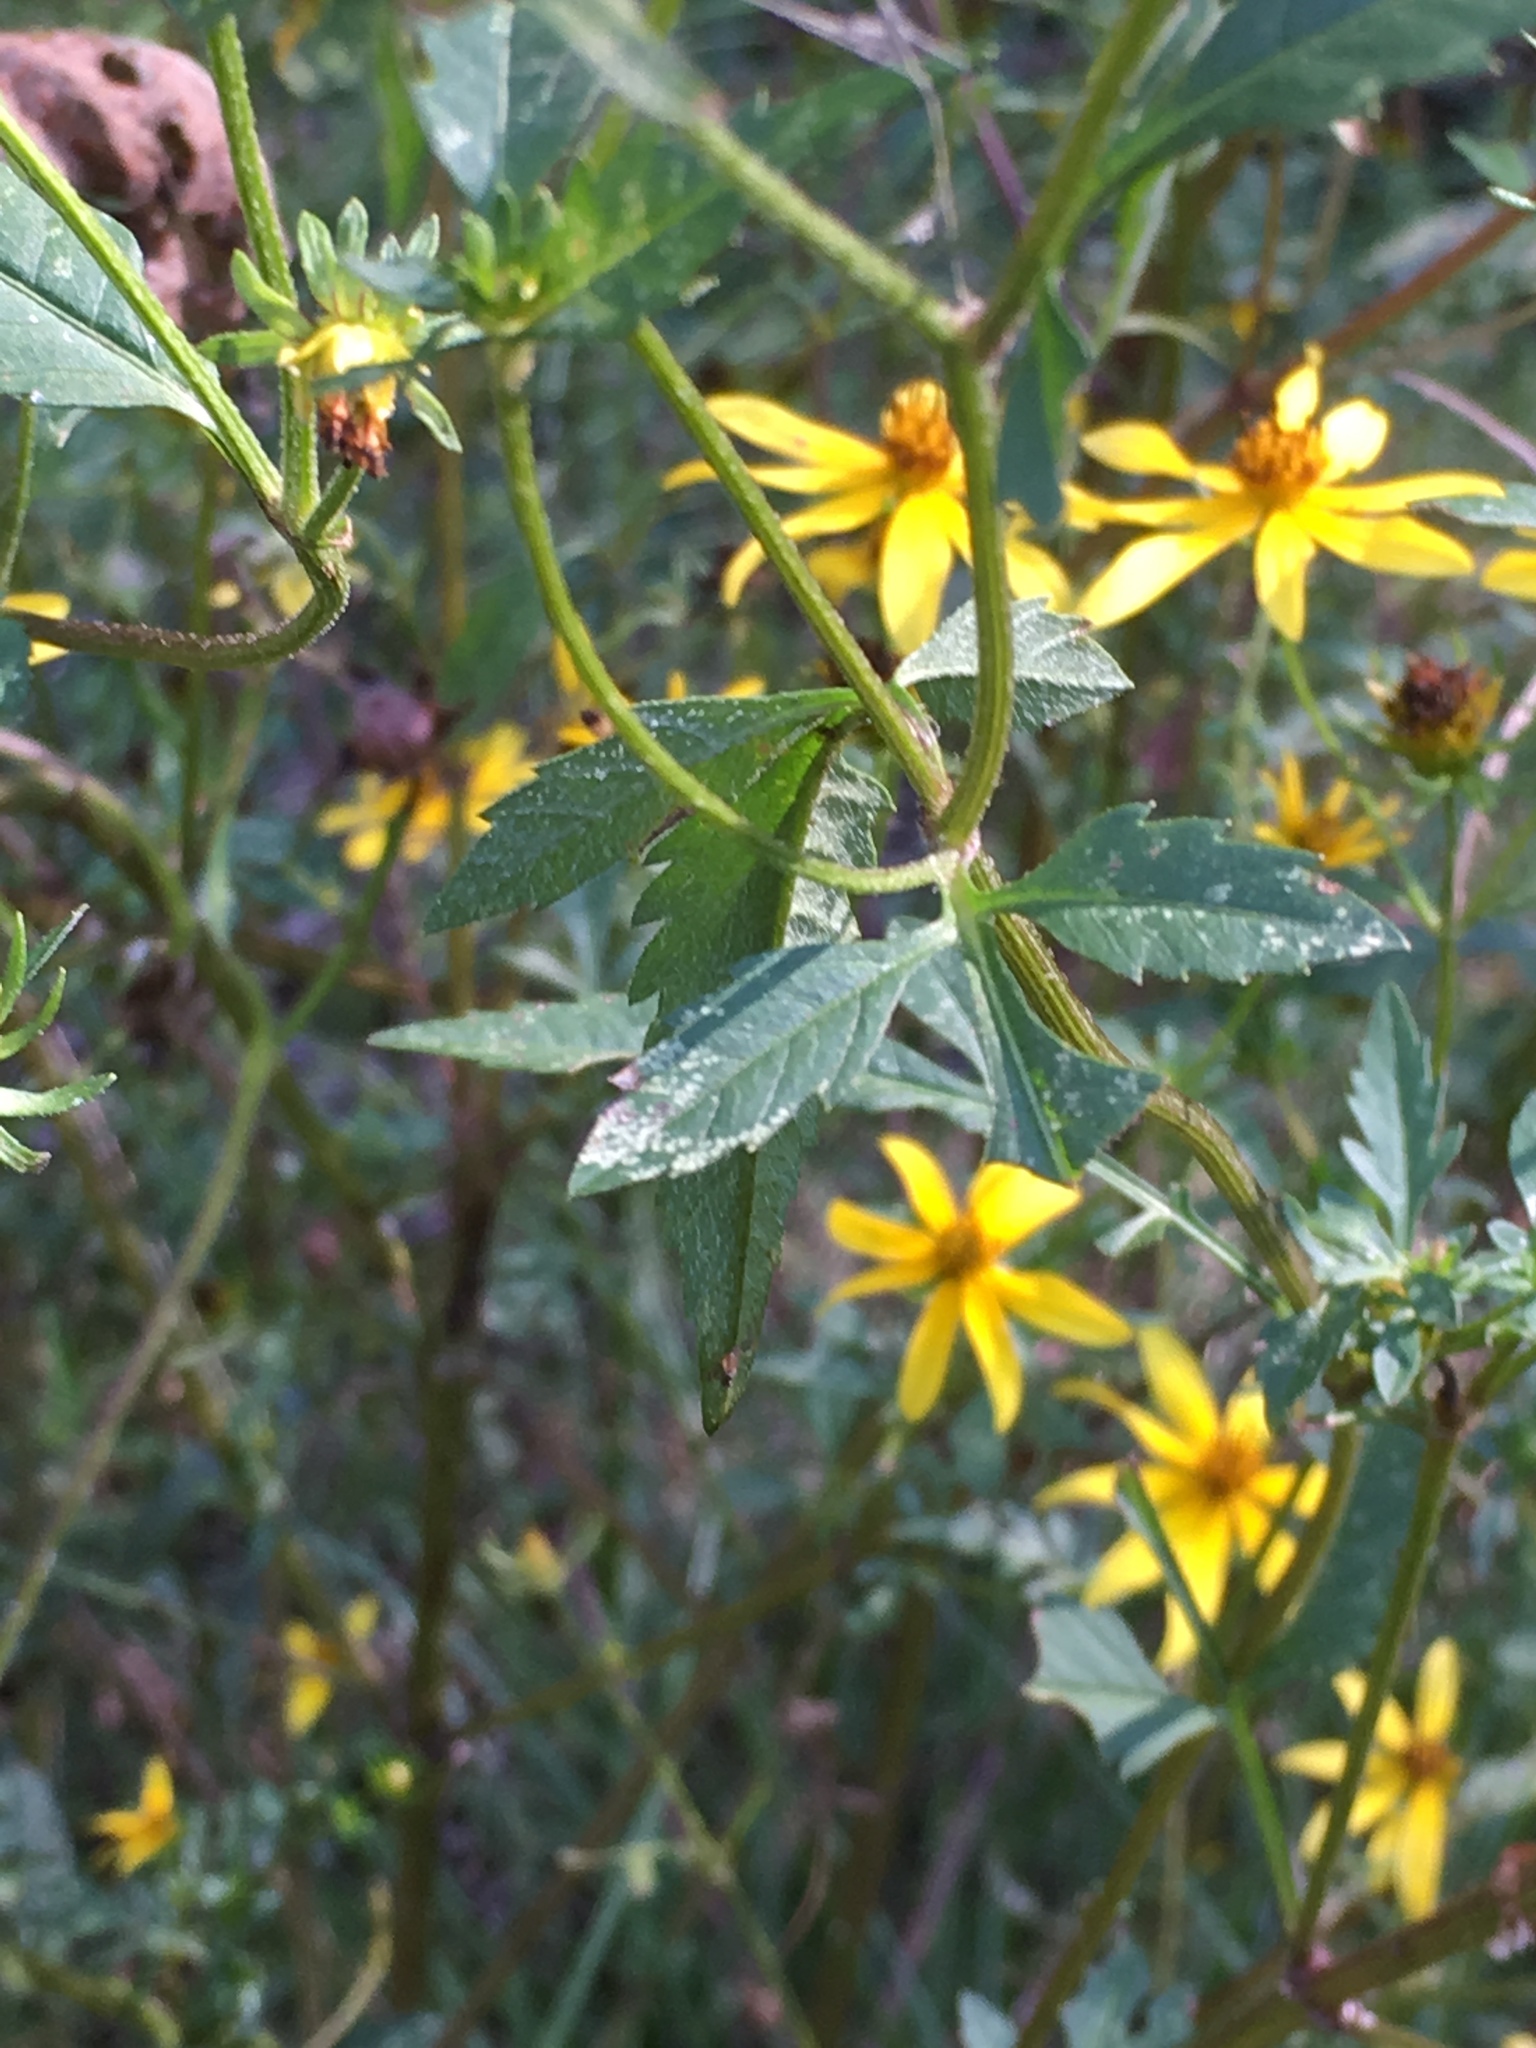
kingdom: Plantae
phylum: Tracheophyta
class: Magnoliopsida
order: Asterales
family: Asteraceae
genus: Bidens
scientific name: Bidens aristosa
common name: Western tickseed
